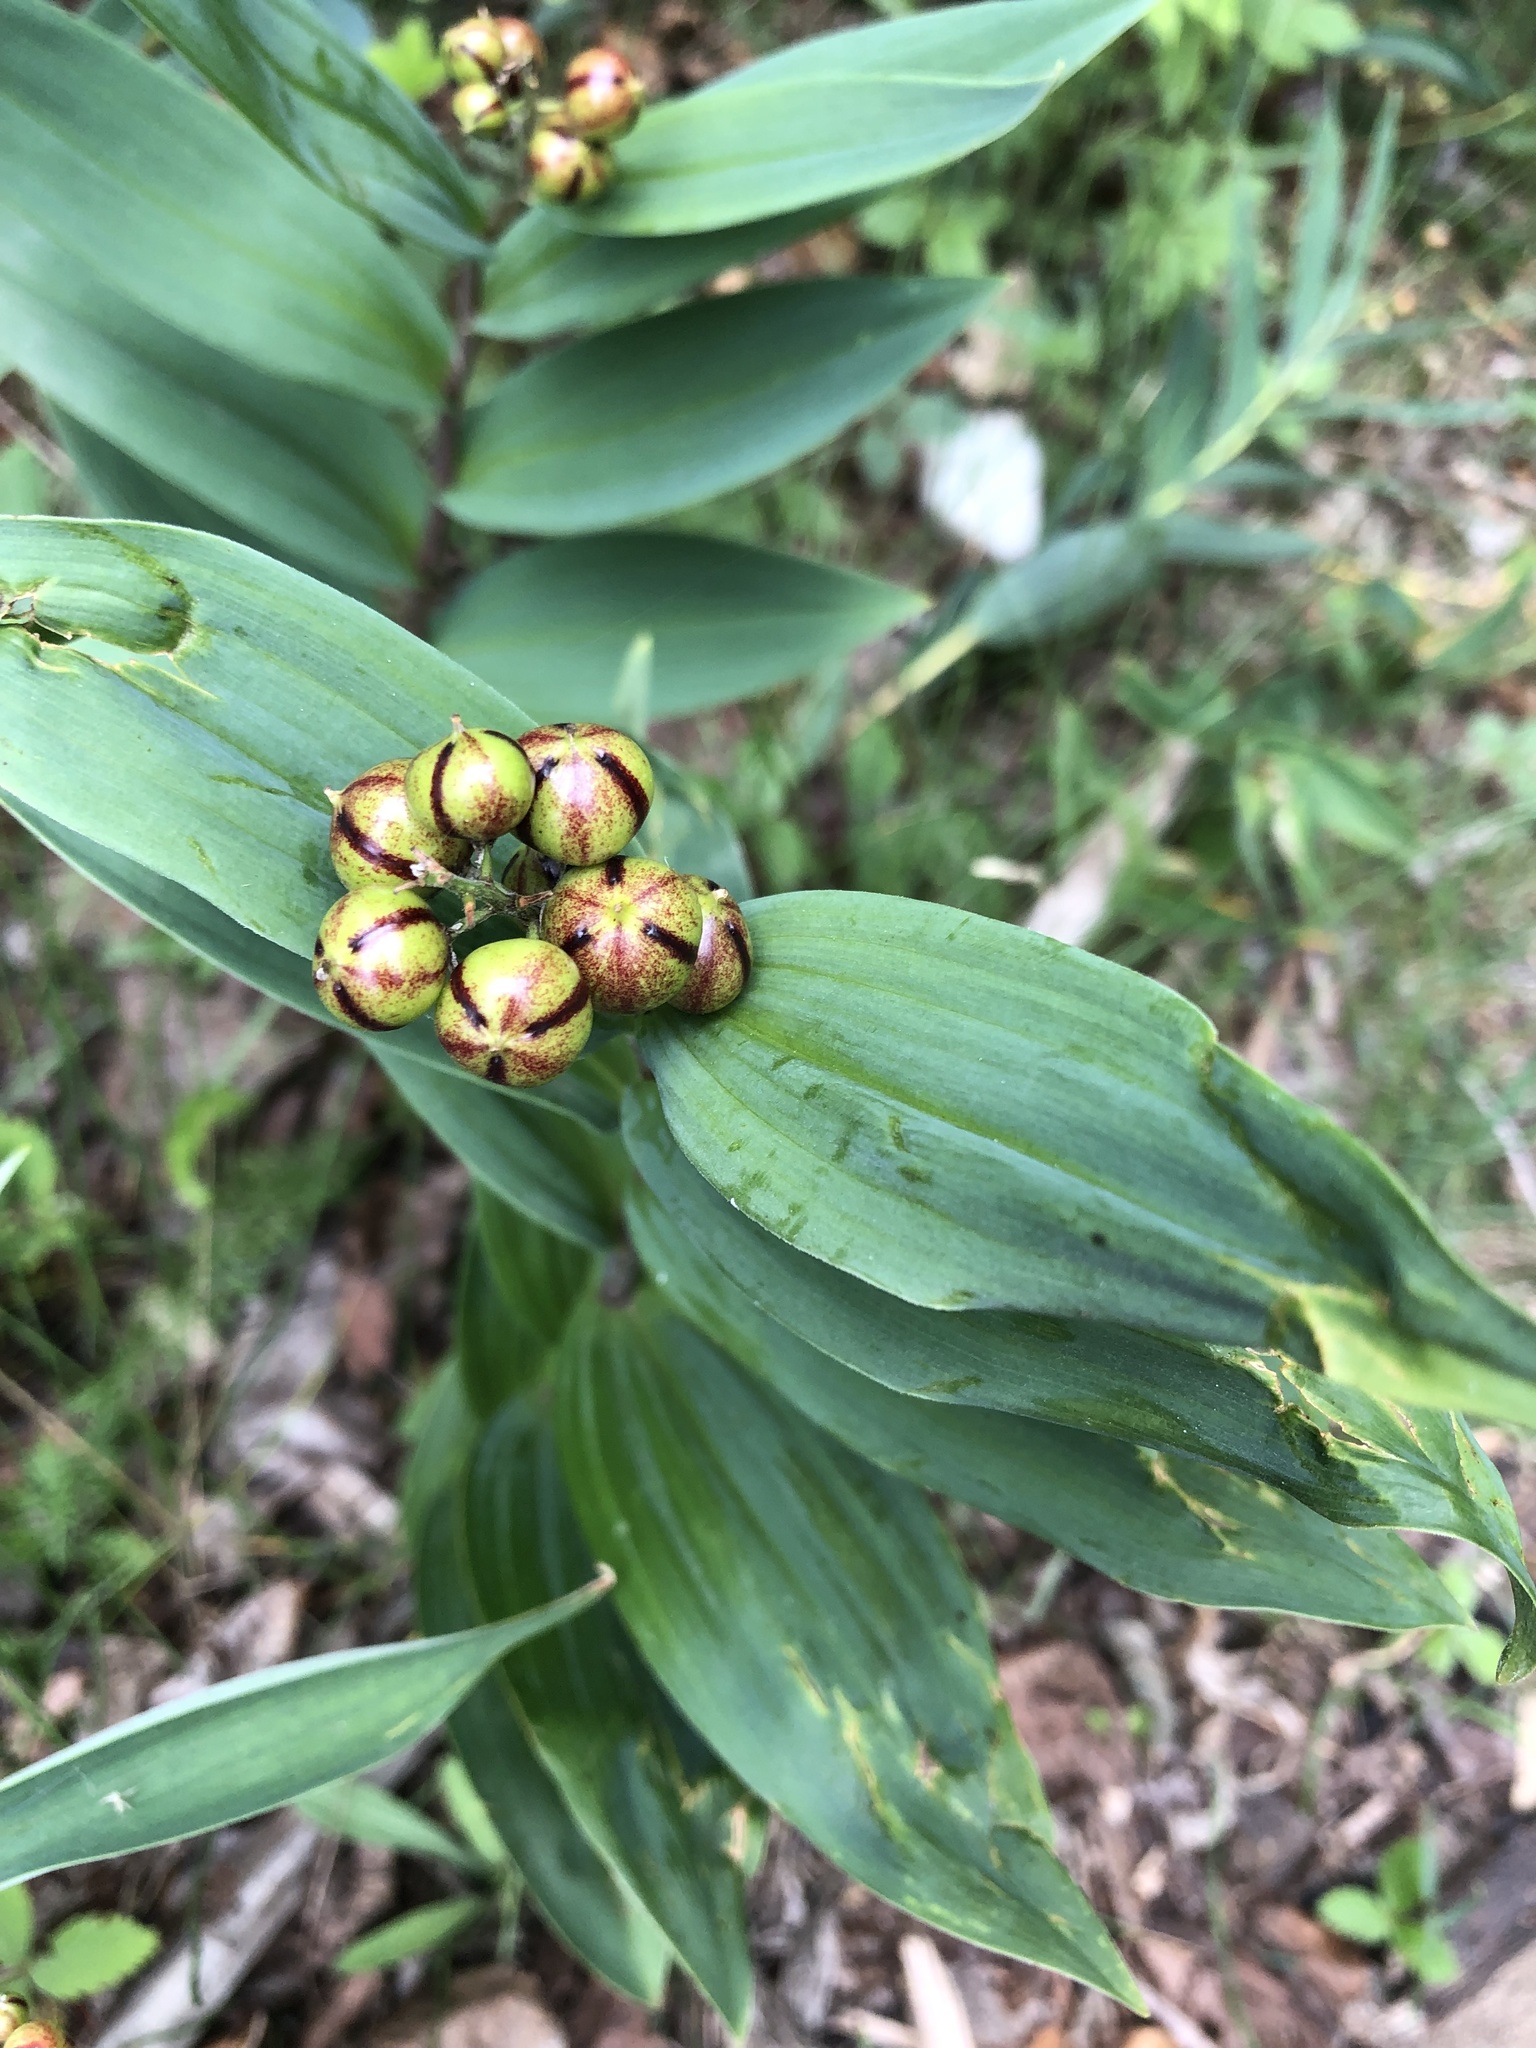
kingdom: Plantae
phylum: Tracheophyta
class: Liliopsida
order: Asparagales
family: Asparagaceae
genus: Maianthemum
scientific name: Maianthemum stellatum
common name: Little false solomon's seal
